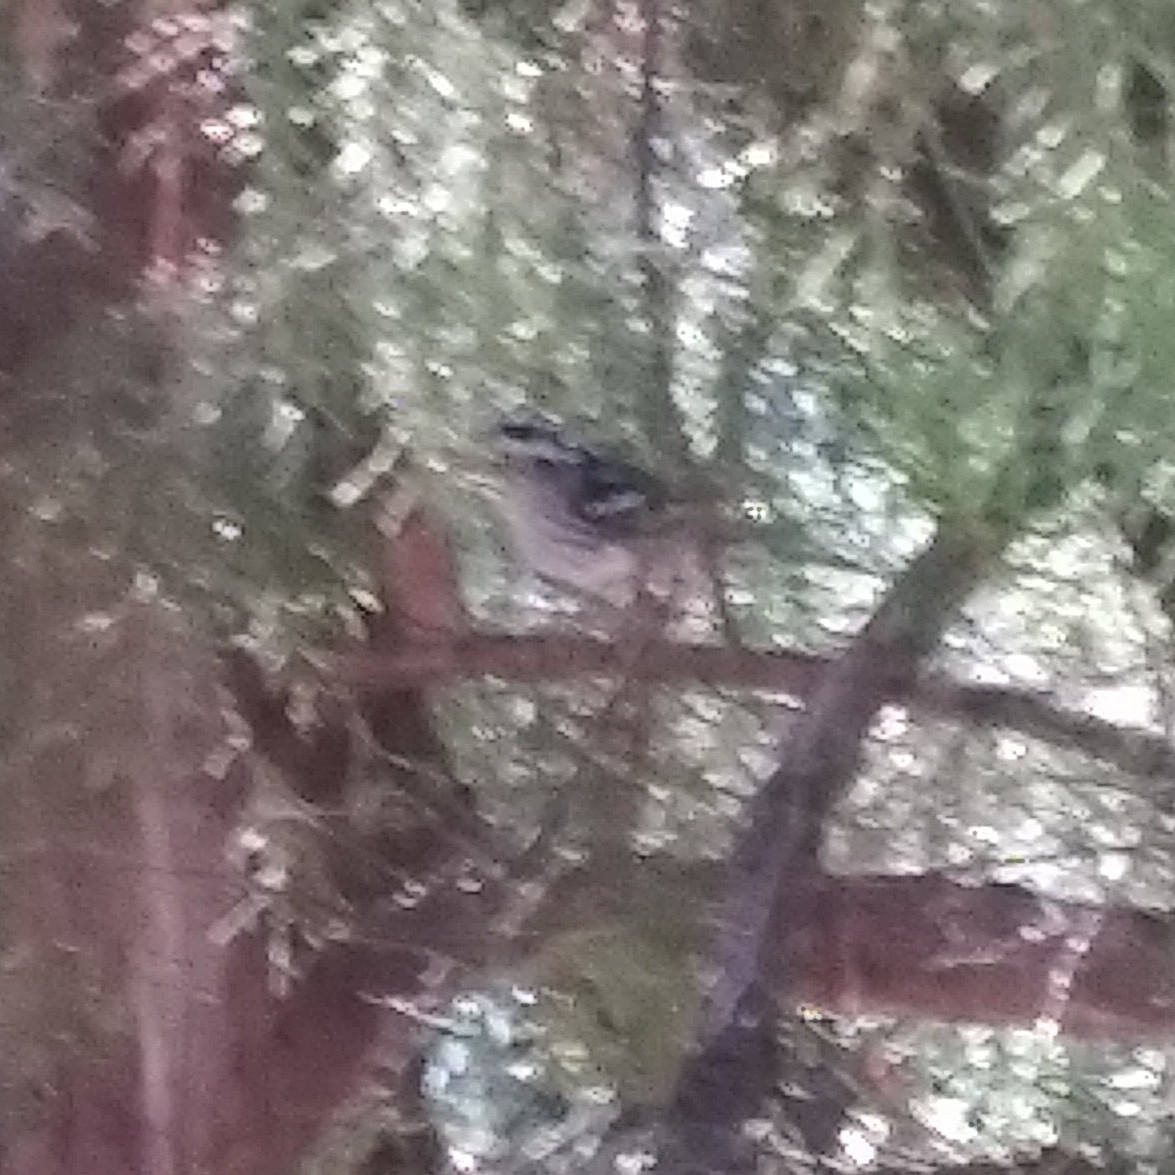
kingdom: Animalia
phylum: Chordata
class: Aves
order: Passeriformes
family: Parulidae
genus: Mniotilta
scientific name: Mniotilta varia
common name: Black-and-white warbler
